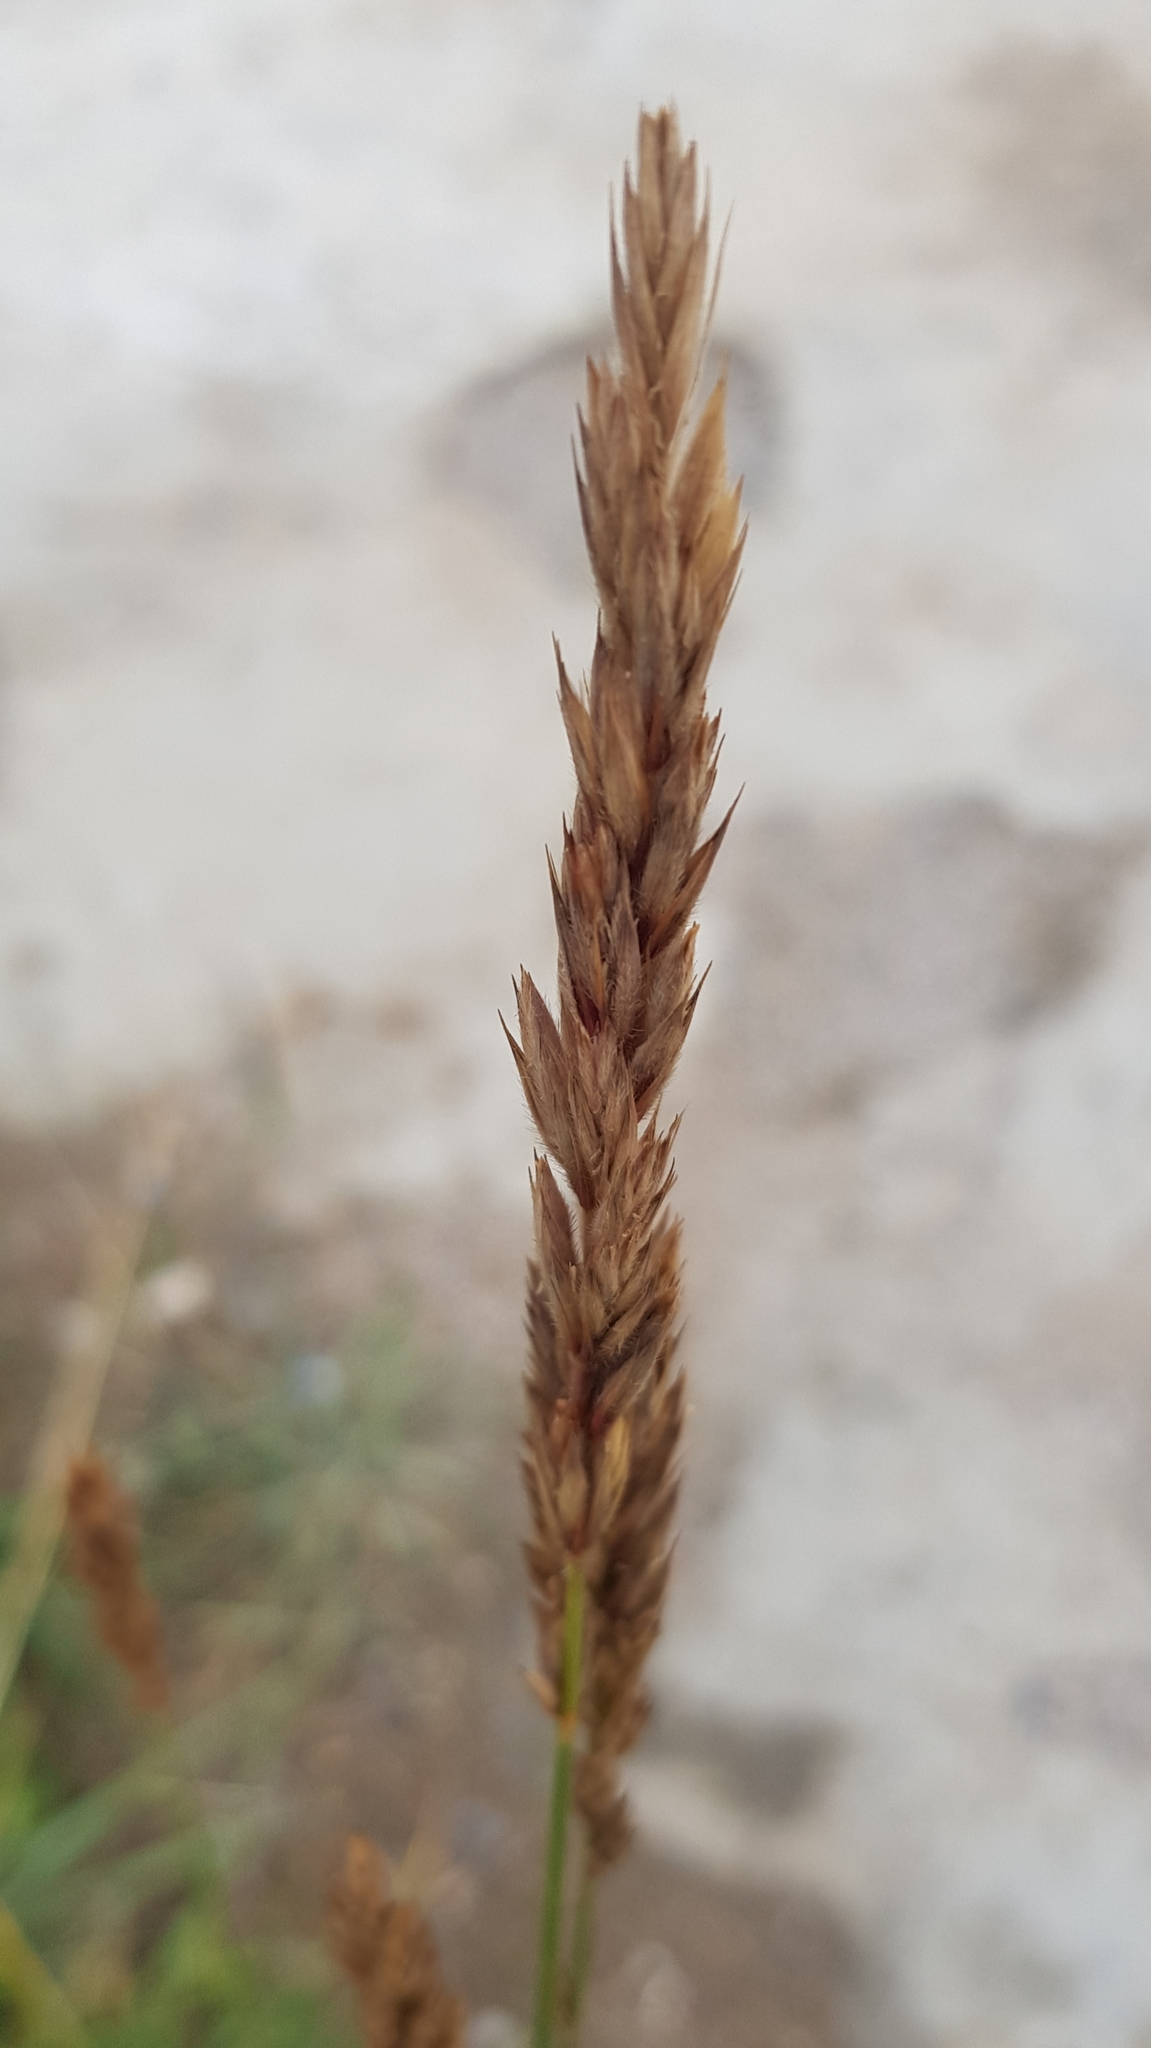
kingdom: Plantae
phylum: Tracheophyta
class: Liliopsida
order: Poales
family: Poaceae
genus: Leymus
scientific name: Leymus chinensis
